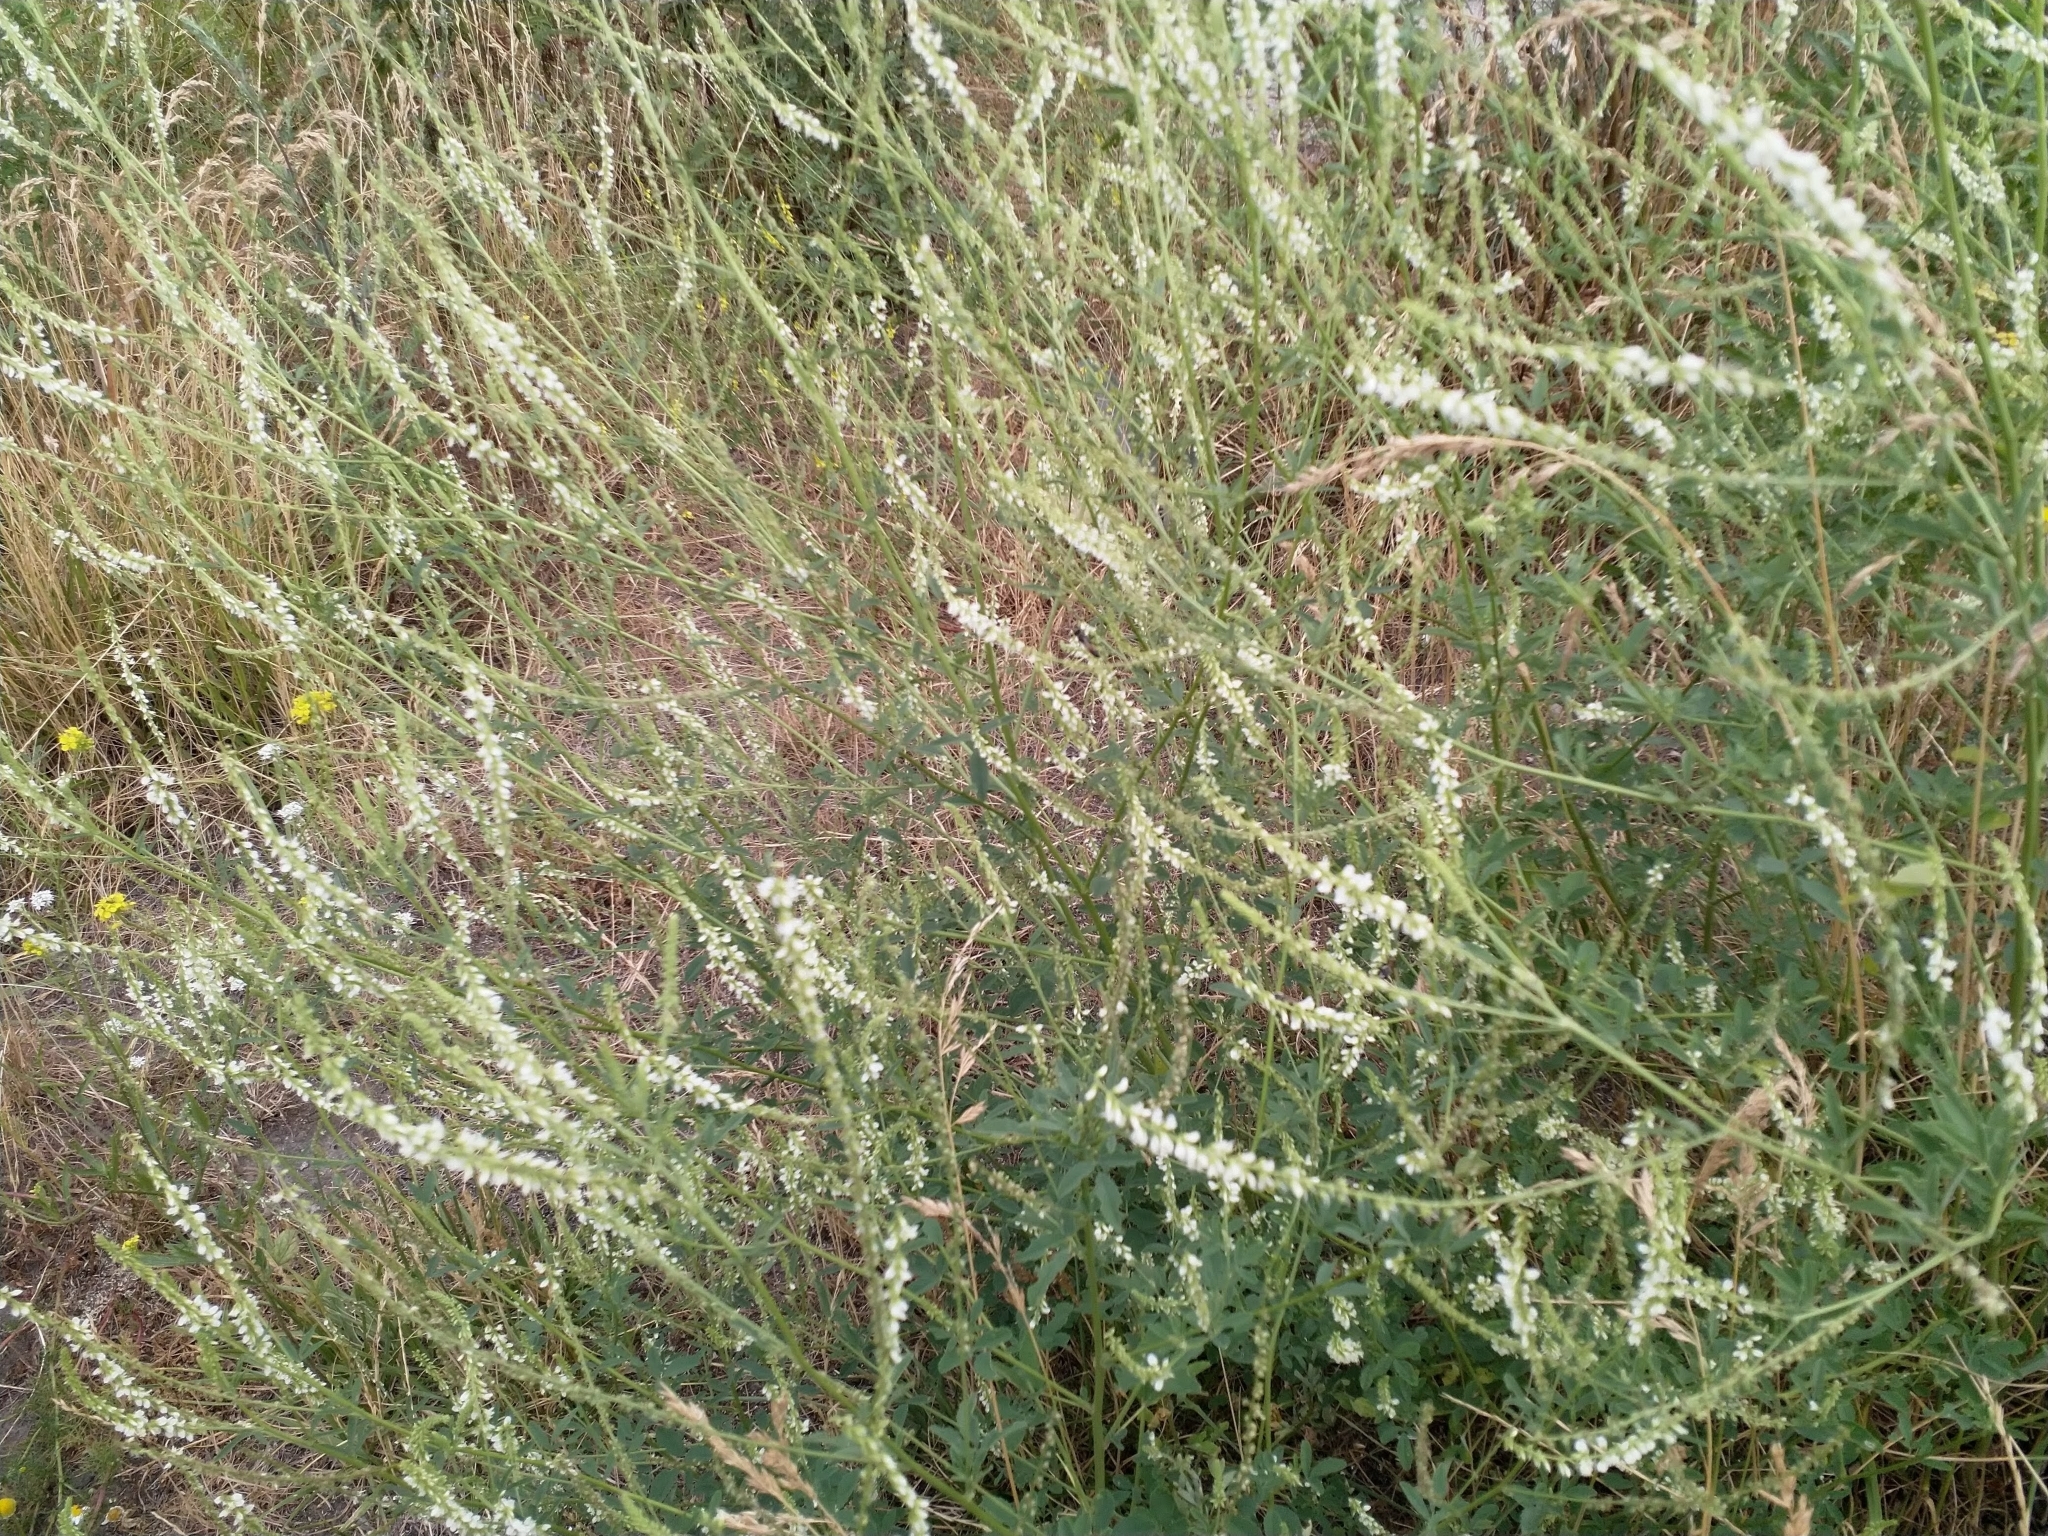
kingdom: Plantae
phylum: Tracheophyta
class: Magnoliopsida
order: Fabales
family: Fabaceae
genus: Melilotus
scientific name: Melilotus albus
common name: White melilot
